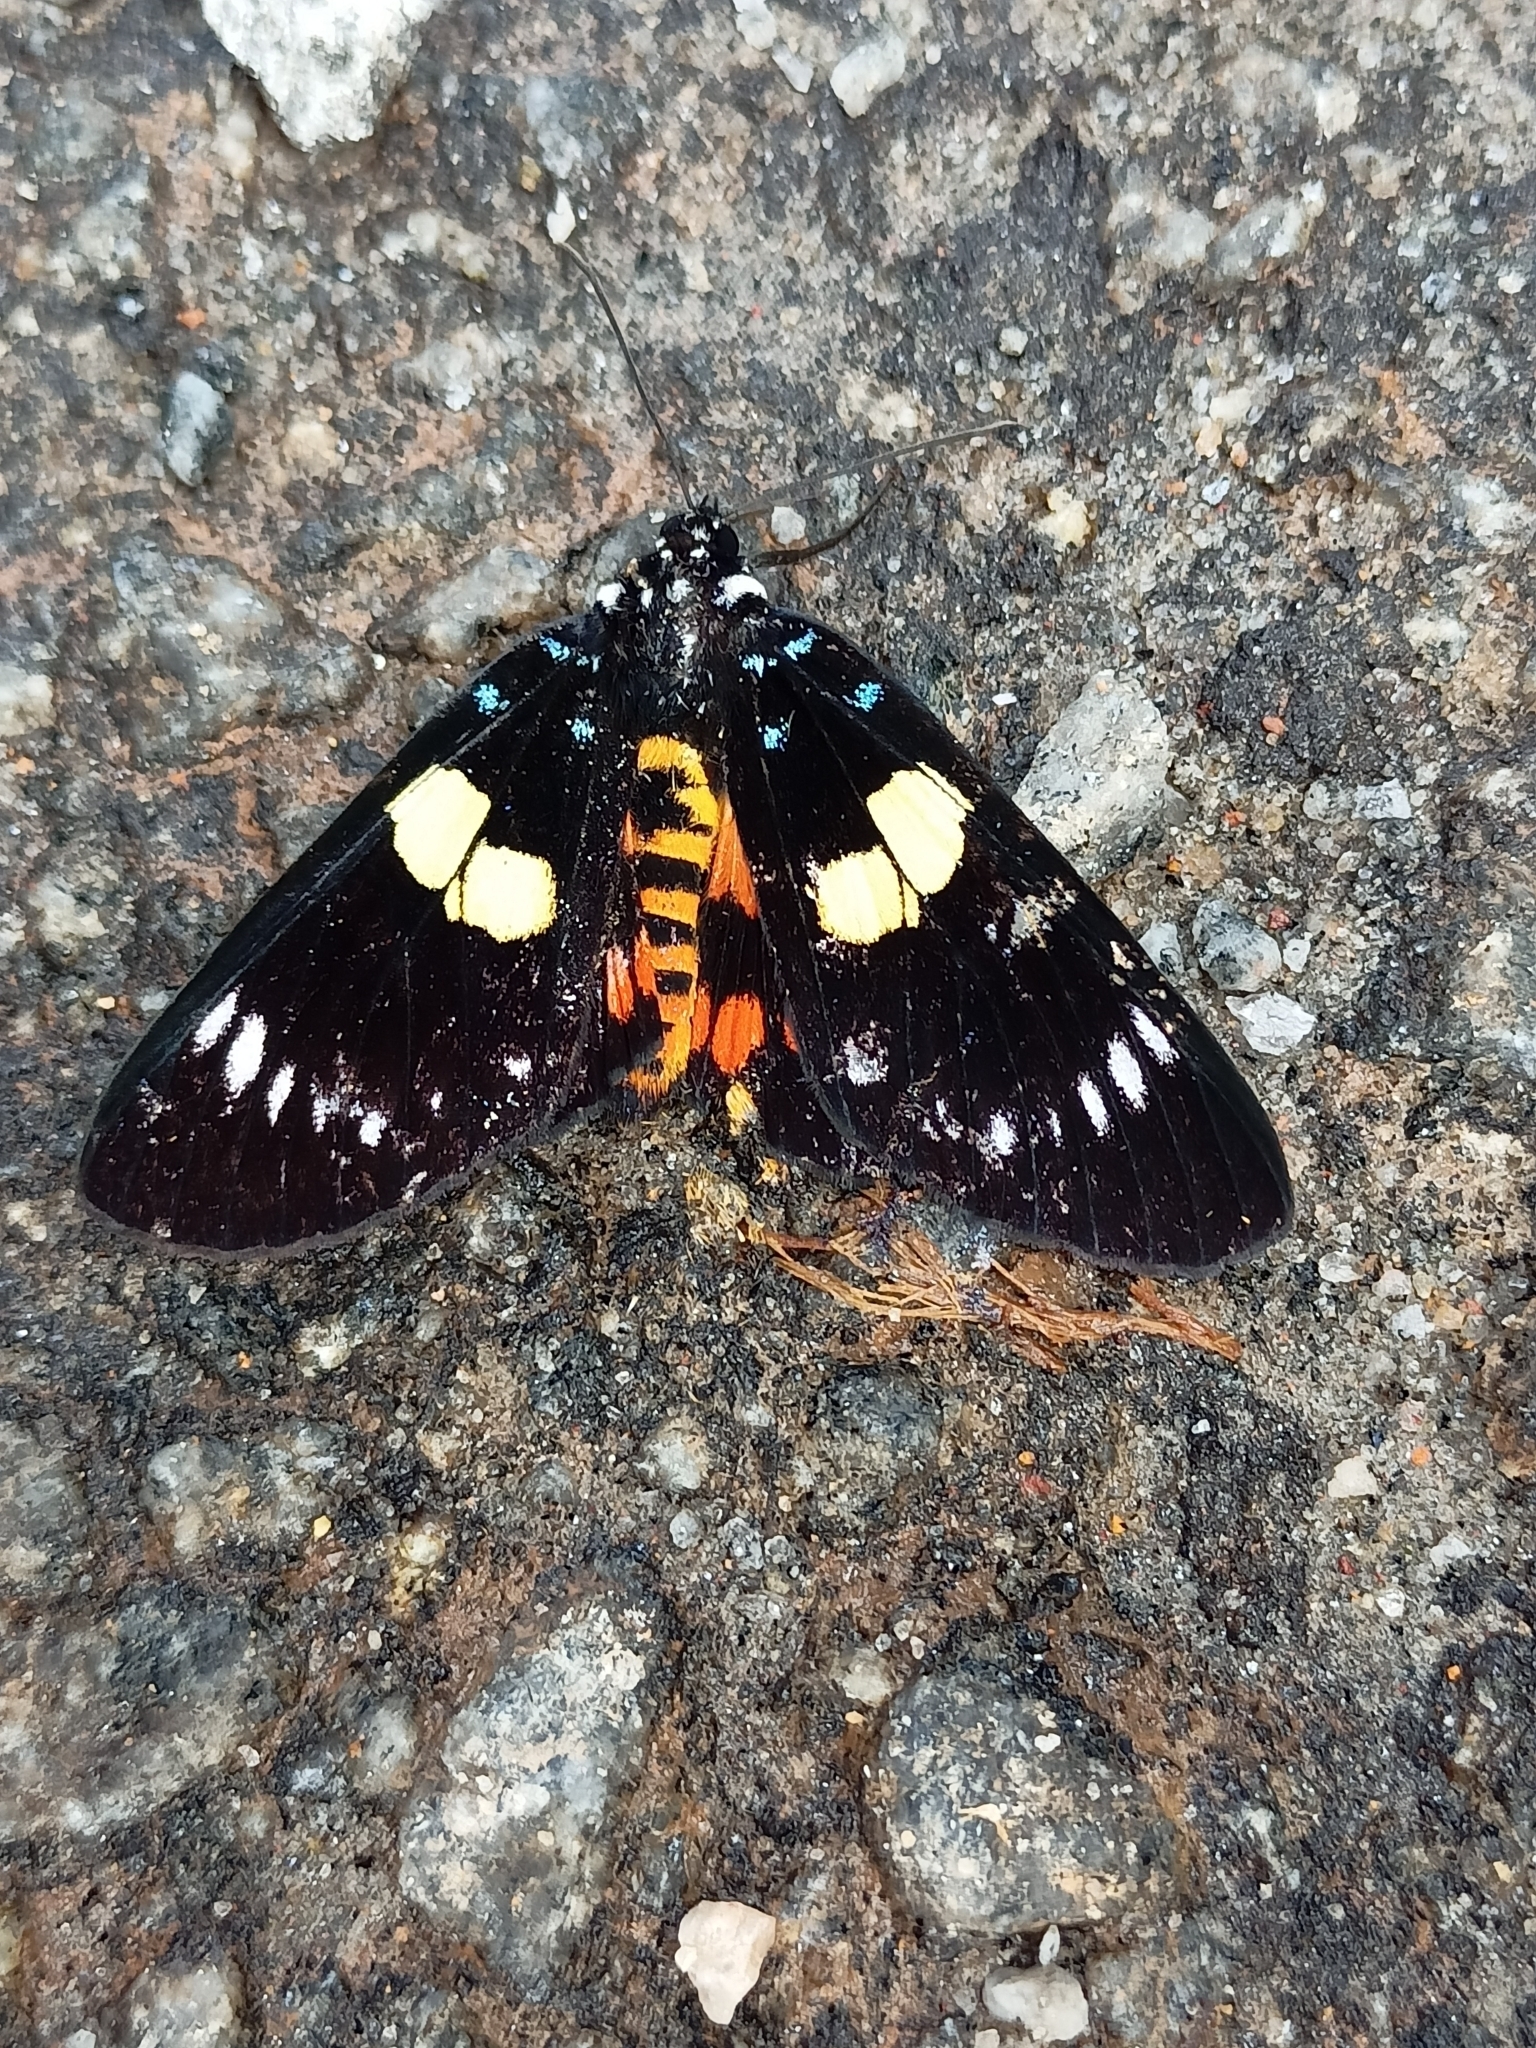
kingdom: Animalia
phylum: Arthropoda
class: Insecta
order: Lepidoptera
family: Noctuidae
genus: Episteme
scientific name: Episteme latimargo
